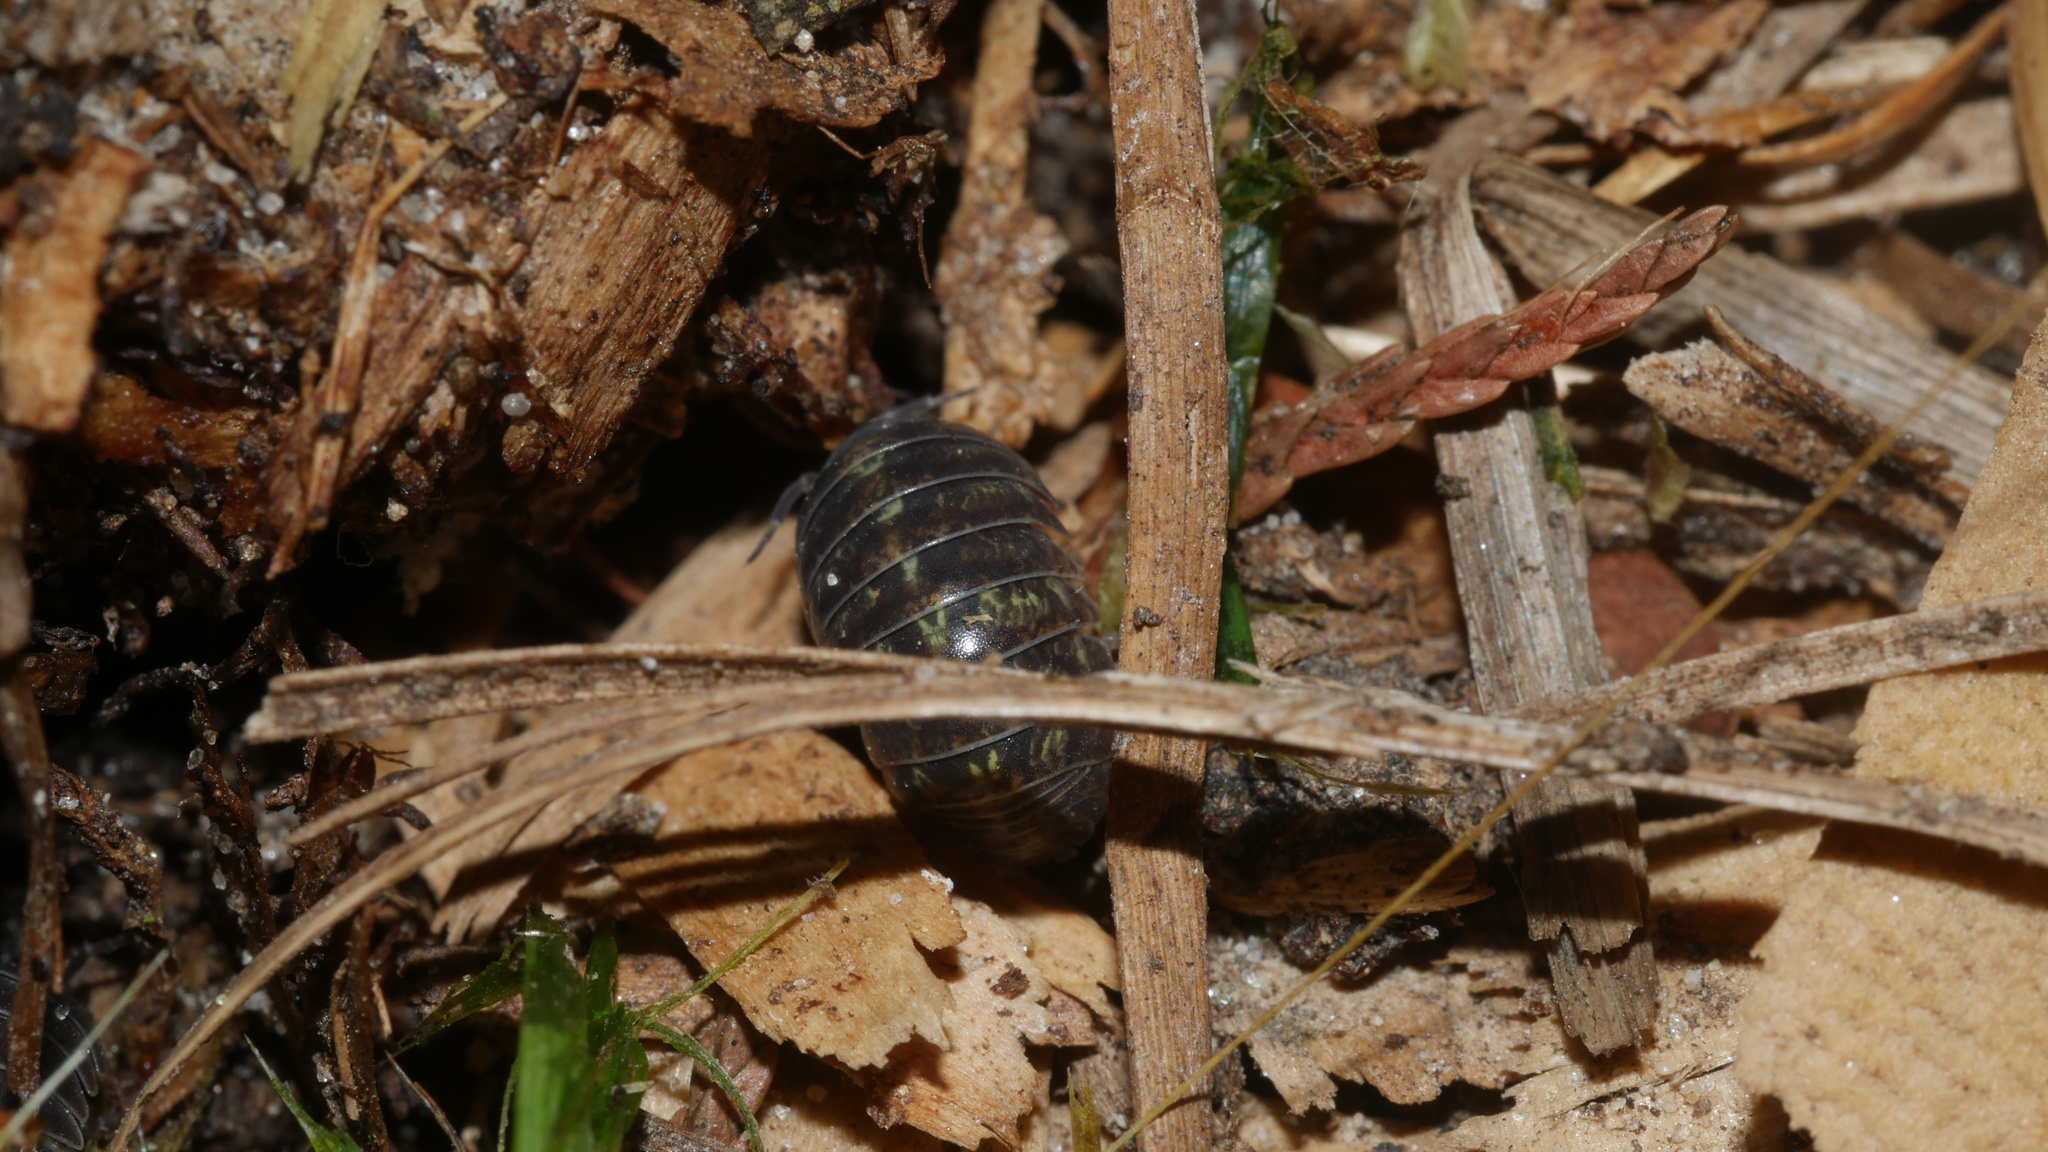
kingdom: Animalia
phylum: Arthropoda
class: Malacostraca
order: Isopoda
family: Armadillidiidae
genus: Armadillidium
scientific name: Armadillidium vulgare
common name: Common pill woodlouse
